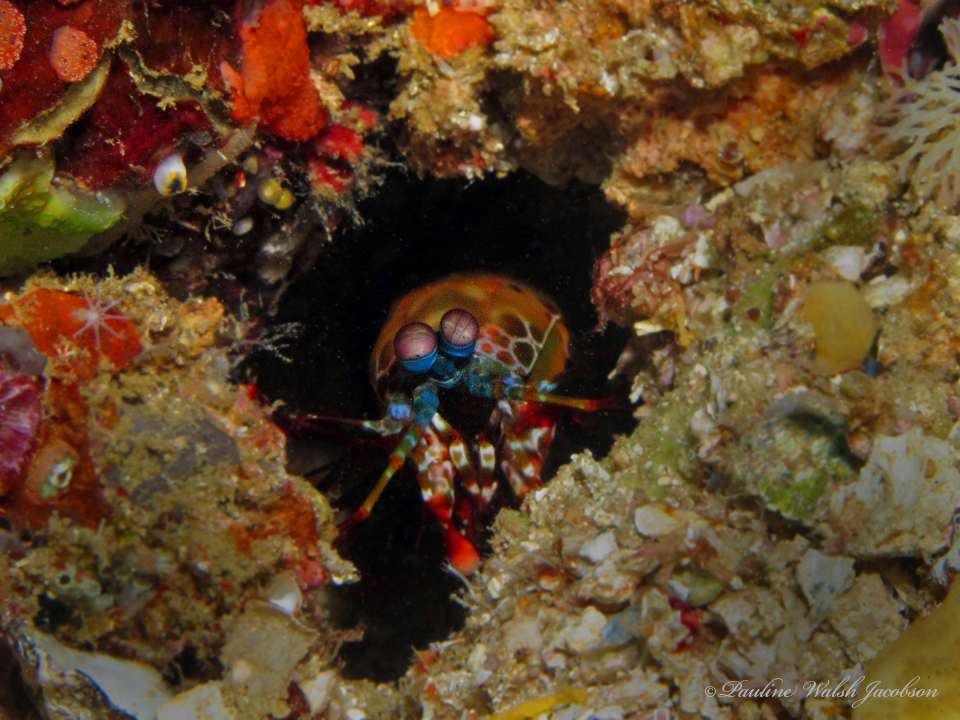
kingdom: Animalia
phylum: Arthropoda
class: Malacostraca
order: Stomatopoda
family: Odontodactylidae
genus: Odontodactylus
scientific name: Odontodactylus scyllarus
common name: Peacock mantis shrimp
